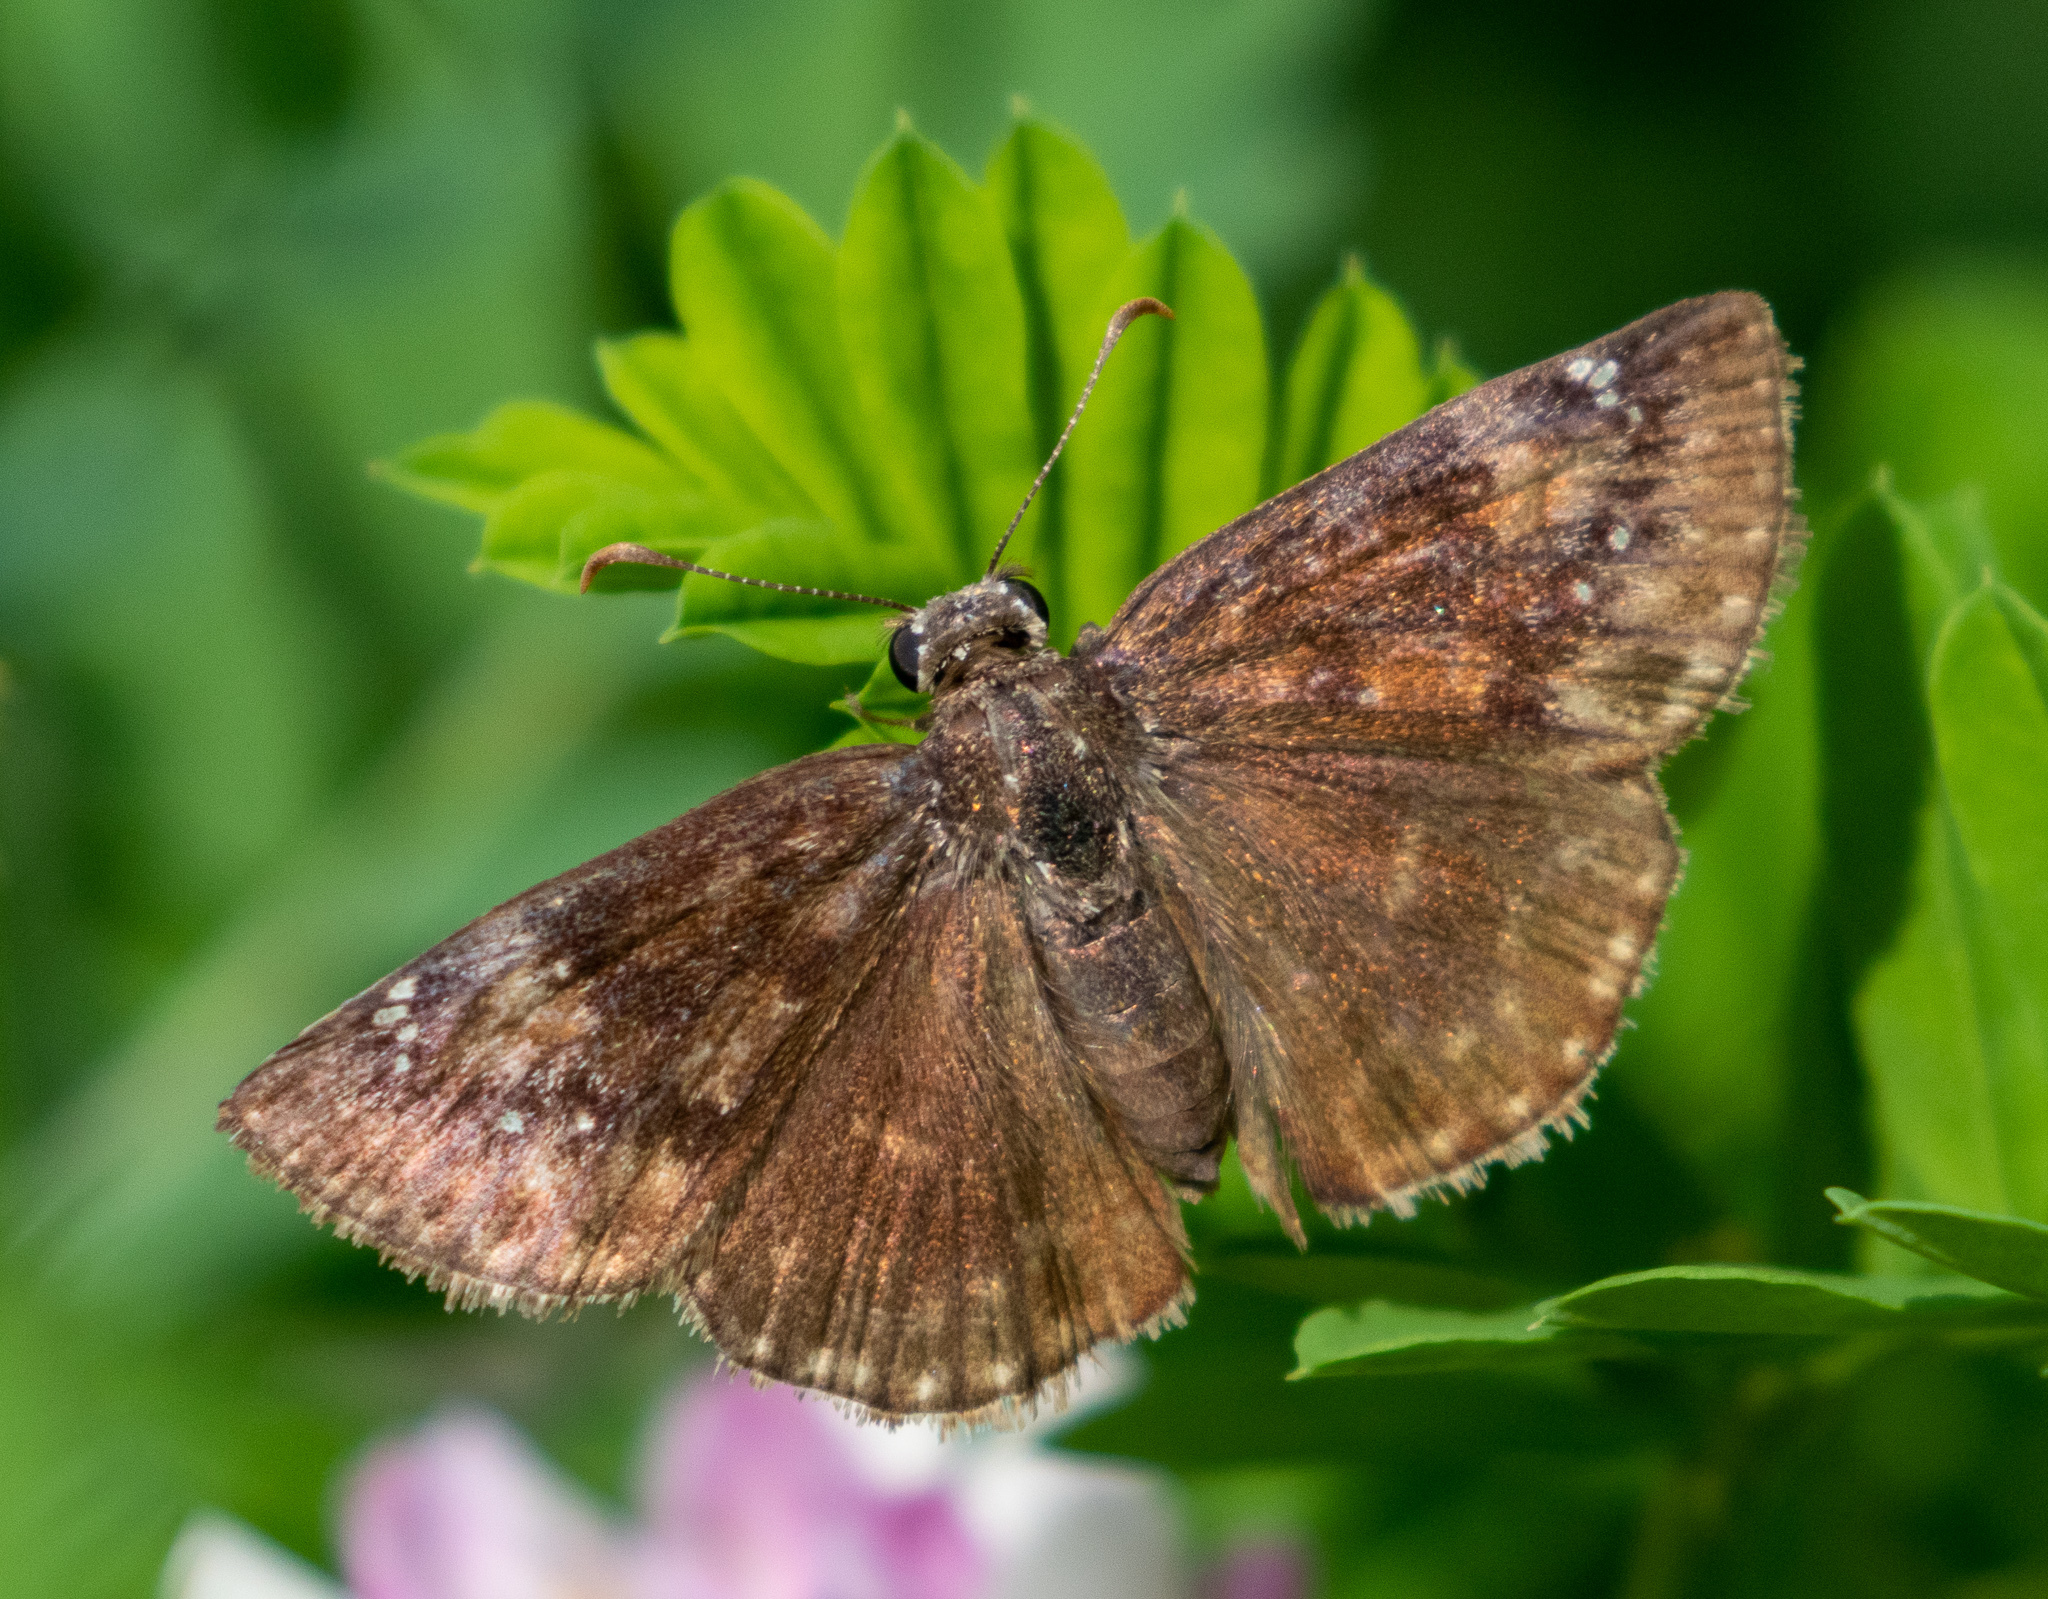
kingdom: Animalia
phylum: Arthropoda
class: Insecta
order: Lepidoptera
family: Hesperiidae
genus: Erynnis
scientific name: Erynnis baptisiae
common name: Wild indigo duskywing
